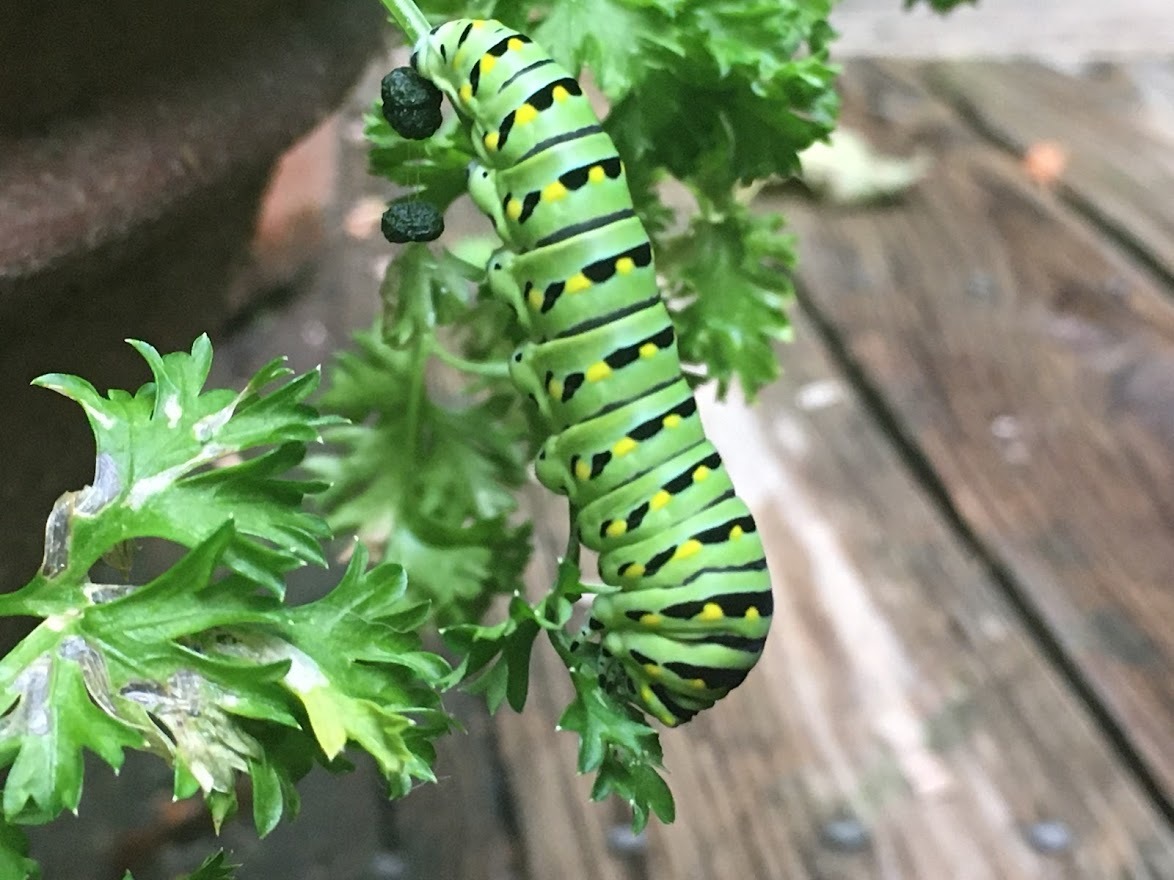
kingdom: Animalia
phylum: Arthropoda
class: Insecta
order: Lepidoptera
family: Papilionidae
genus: Papilio
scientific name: Papilio polyxenes
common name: Black swallowtail
